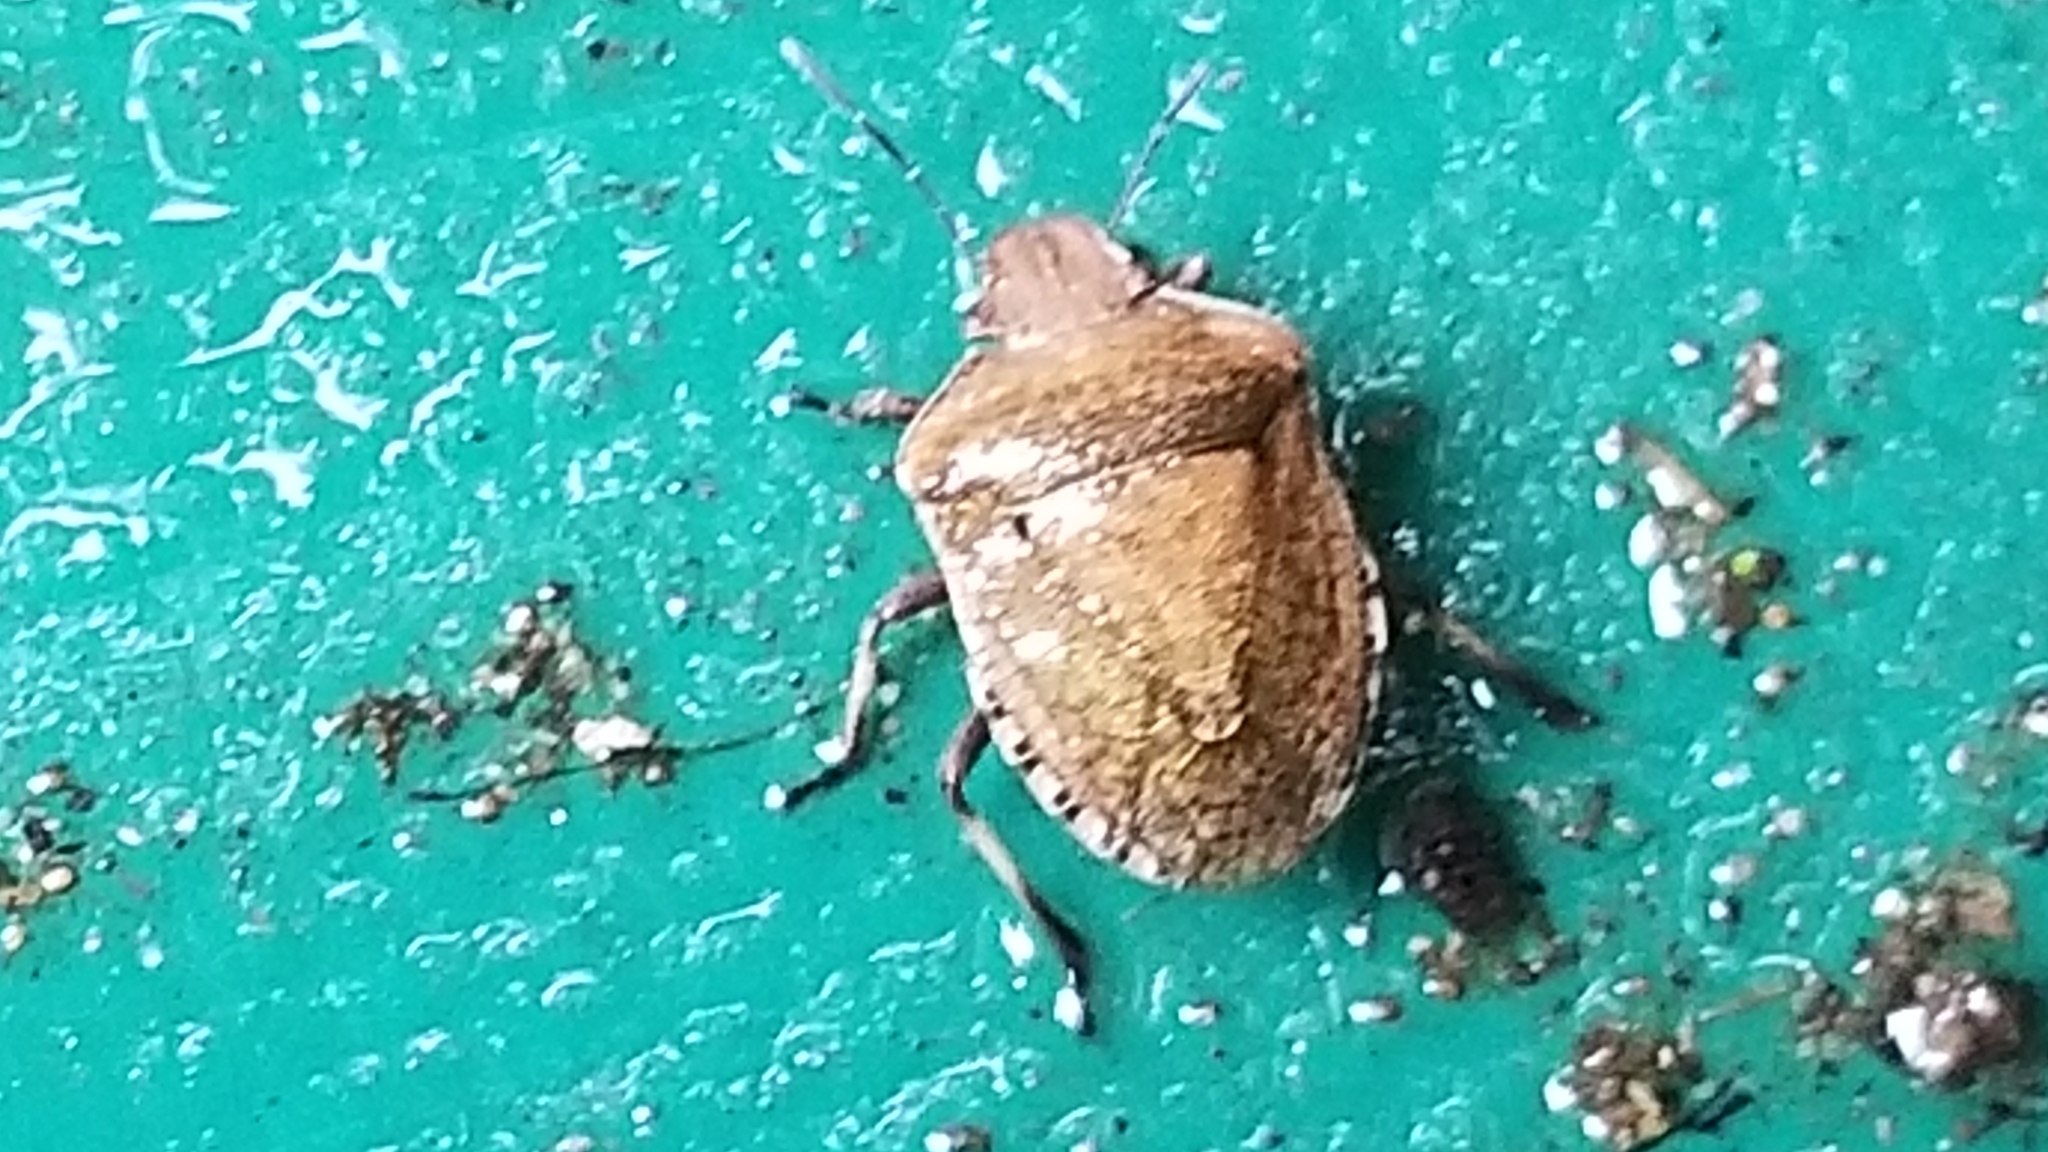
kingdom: Animalia
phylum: Arthropoda
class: Insecta
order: Hemiptera
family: Pentatomidae
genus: Dictyotus
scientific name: Dictyotus caenosus
